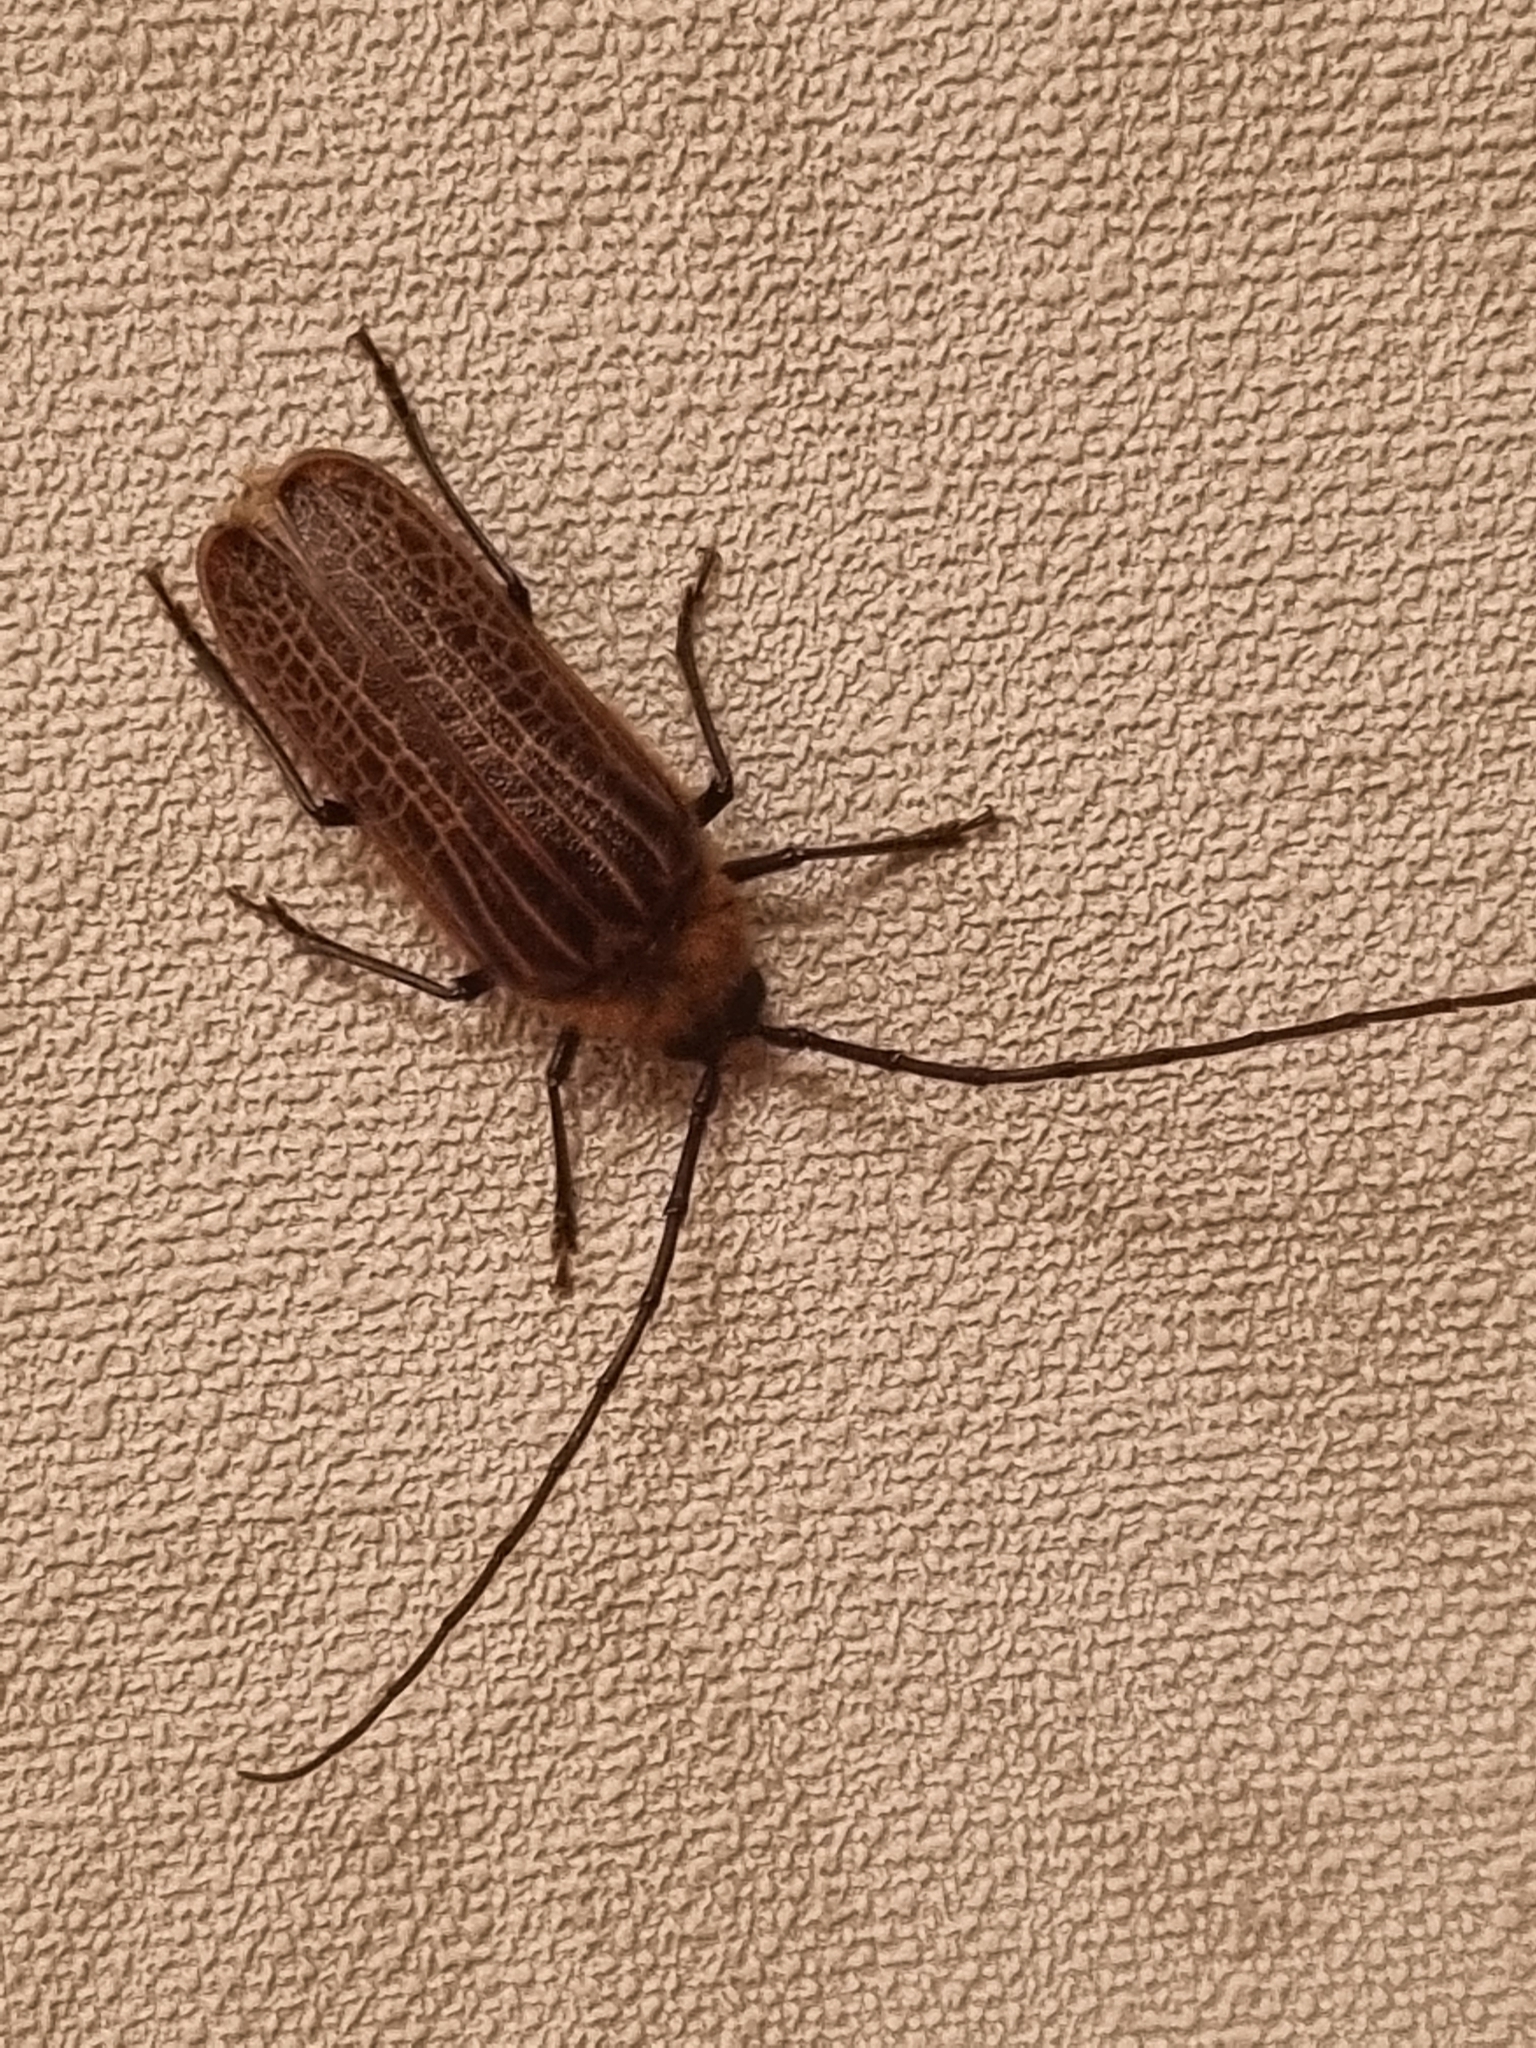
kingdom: Animalia
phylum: Arthropoda
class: Insecta
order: Coleoptera
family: Cerambycidae
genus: Prionoplus
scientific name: Prionoplus reticularis
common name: Huhu beetle
